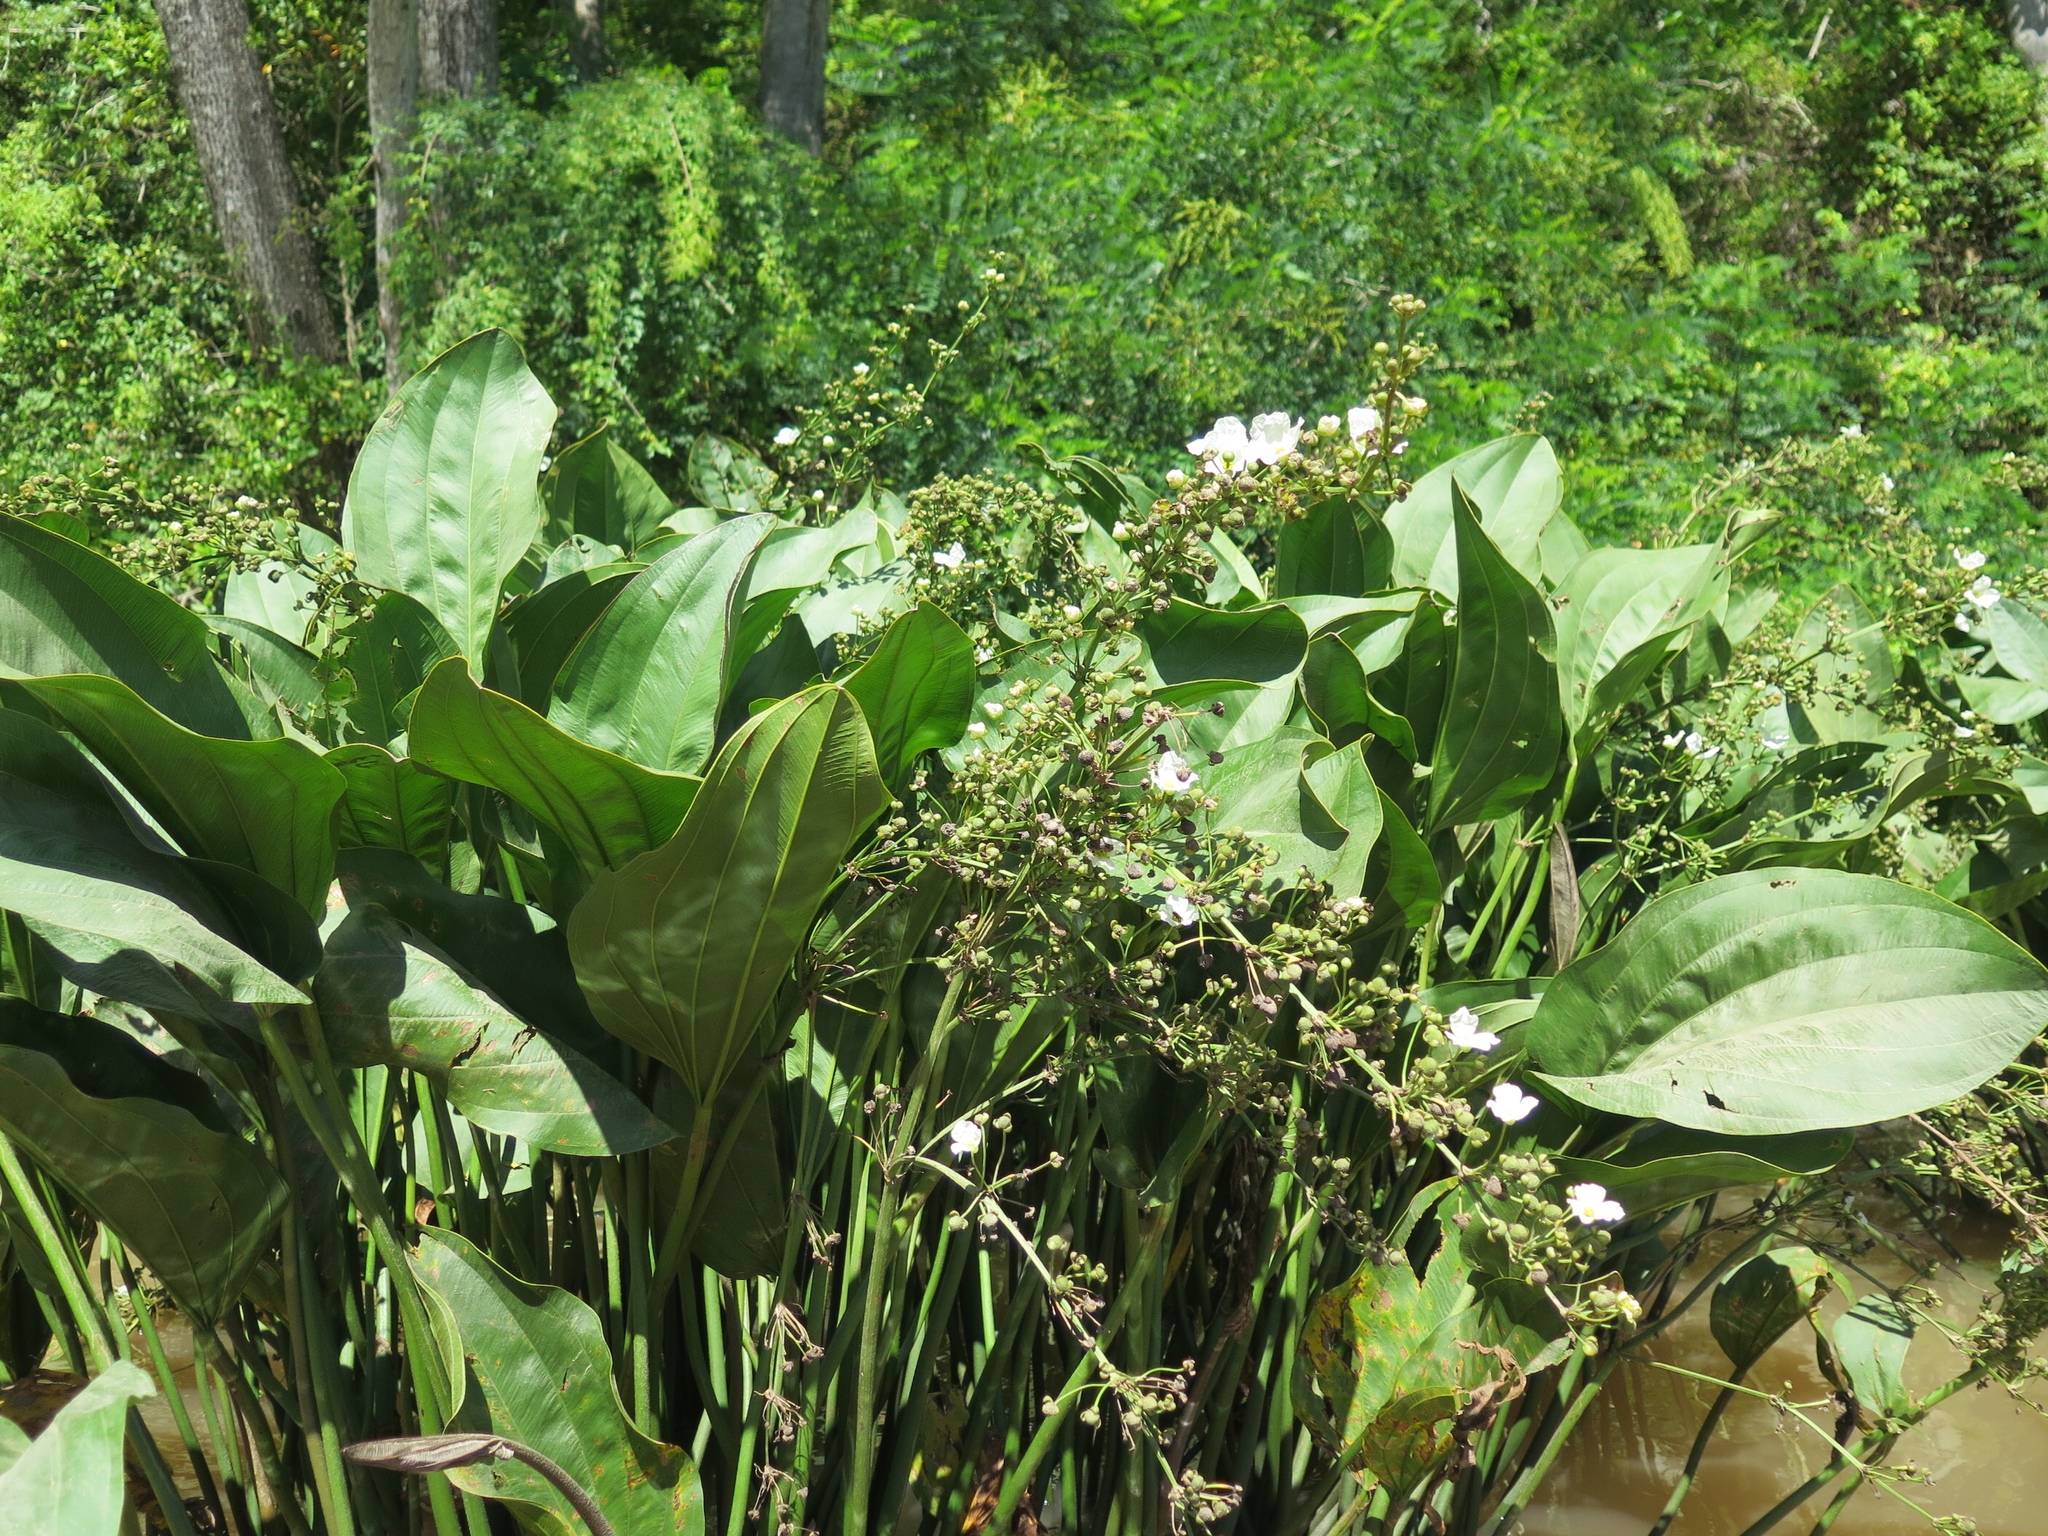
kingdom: Plantae
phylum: Tracheophyta
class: Liliopsida
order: Alismatales
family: Alismataceae
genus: Aquarius
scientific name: Aquarius cordifolius
